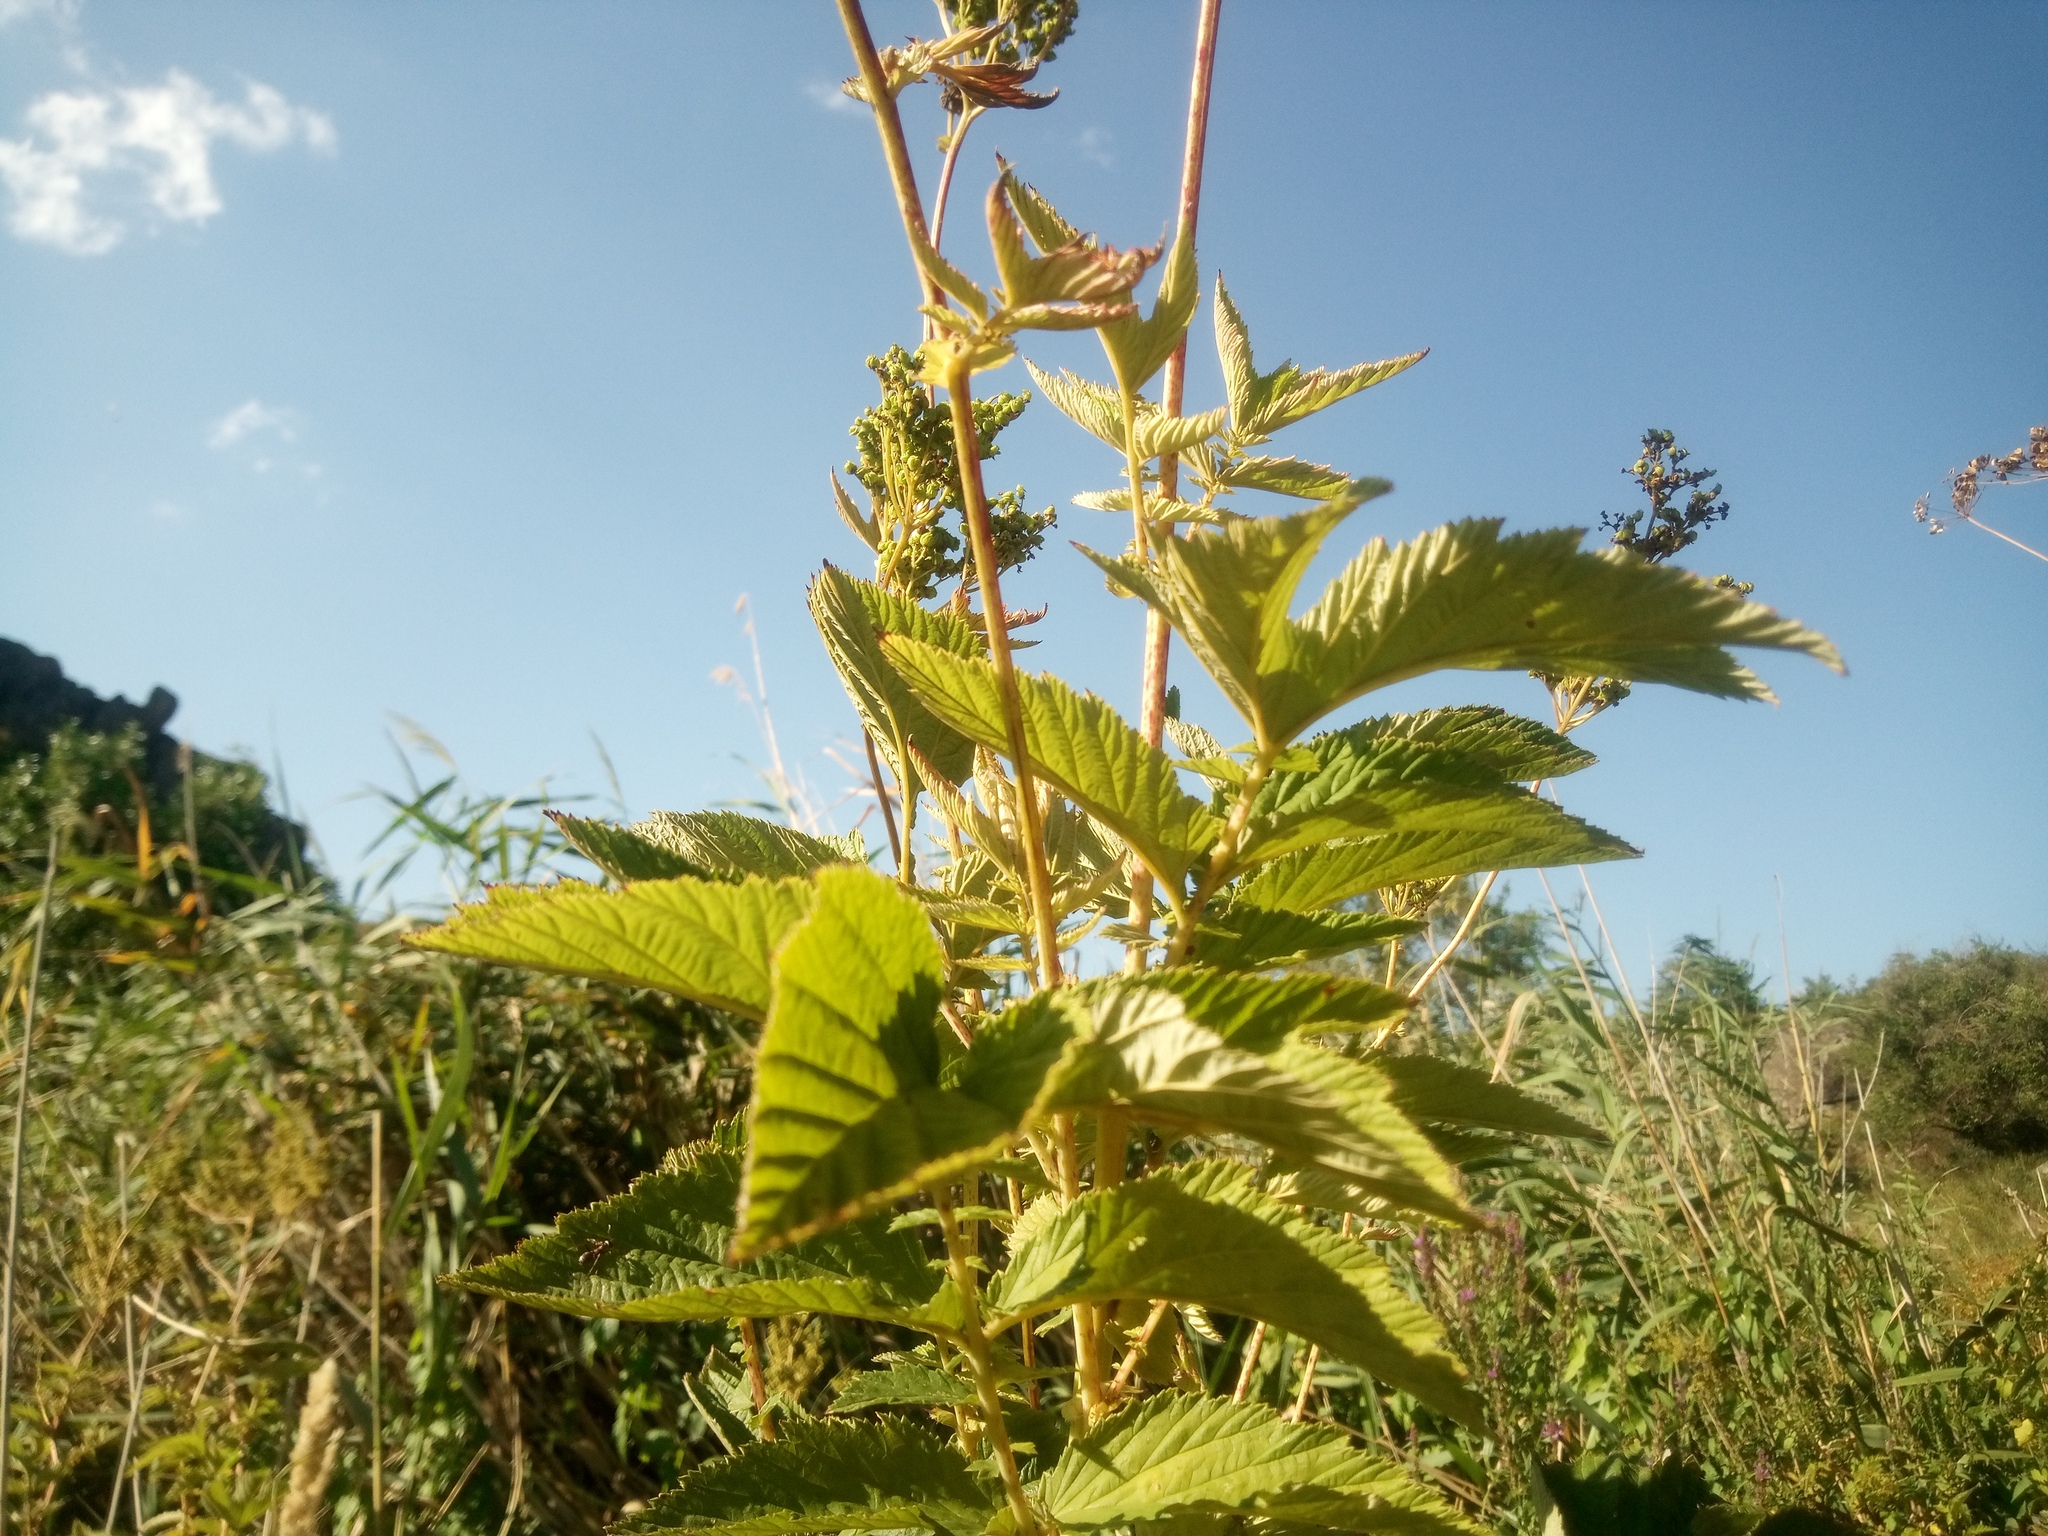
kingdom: Plantae
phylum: Tracheophyta
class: Magnoliopsida
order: Rosales
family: Rosaceae
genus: Filipendula
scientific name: Filipendula ulmaria
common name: Meadowsweet
